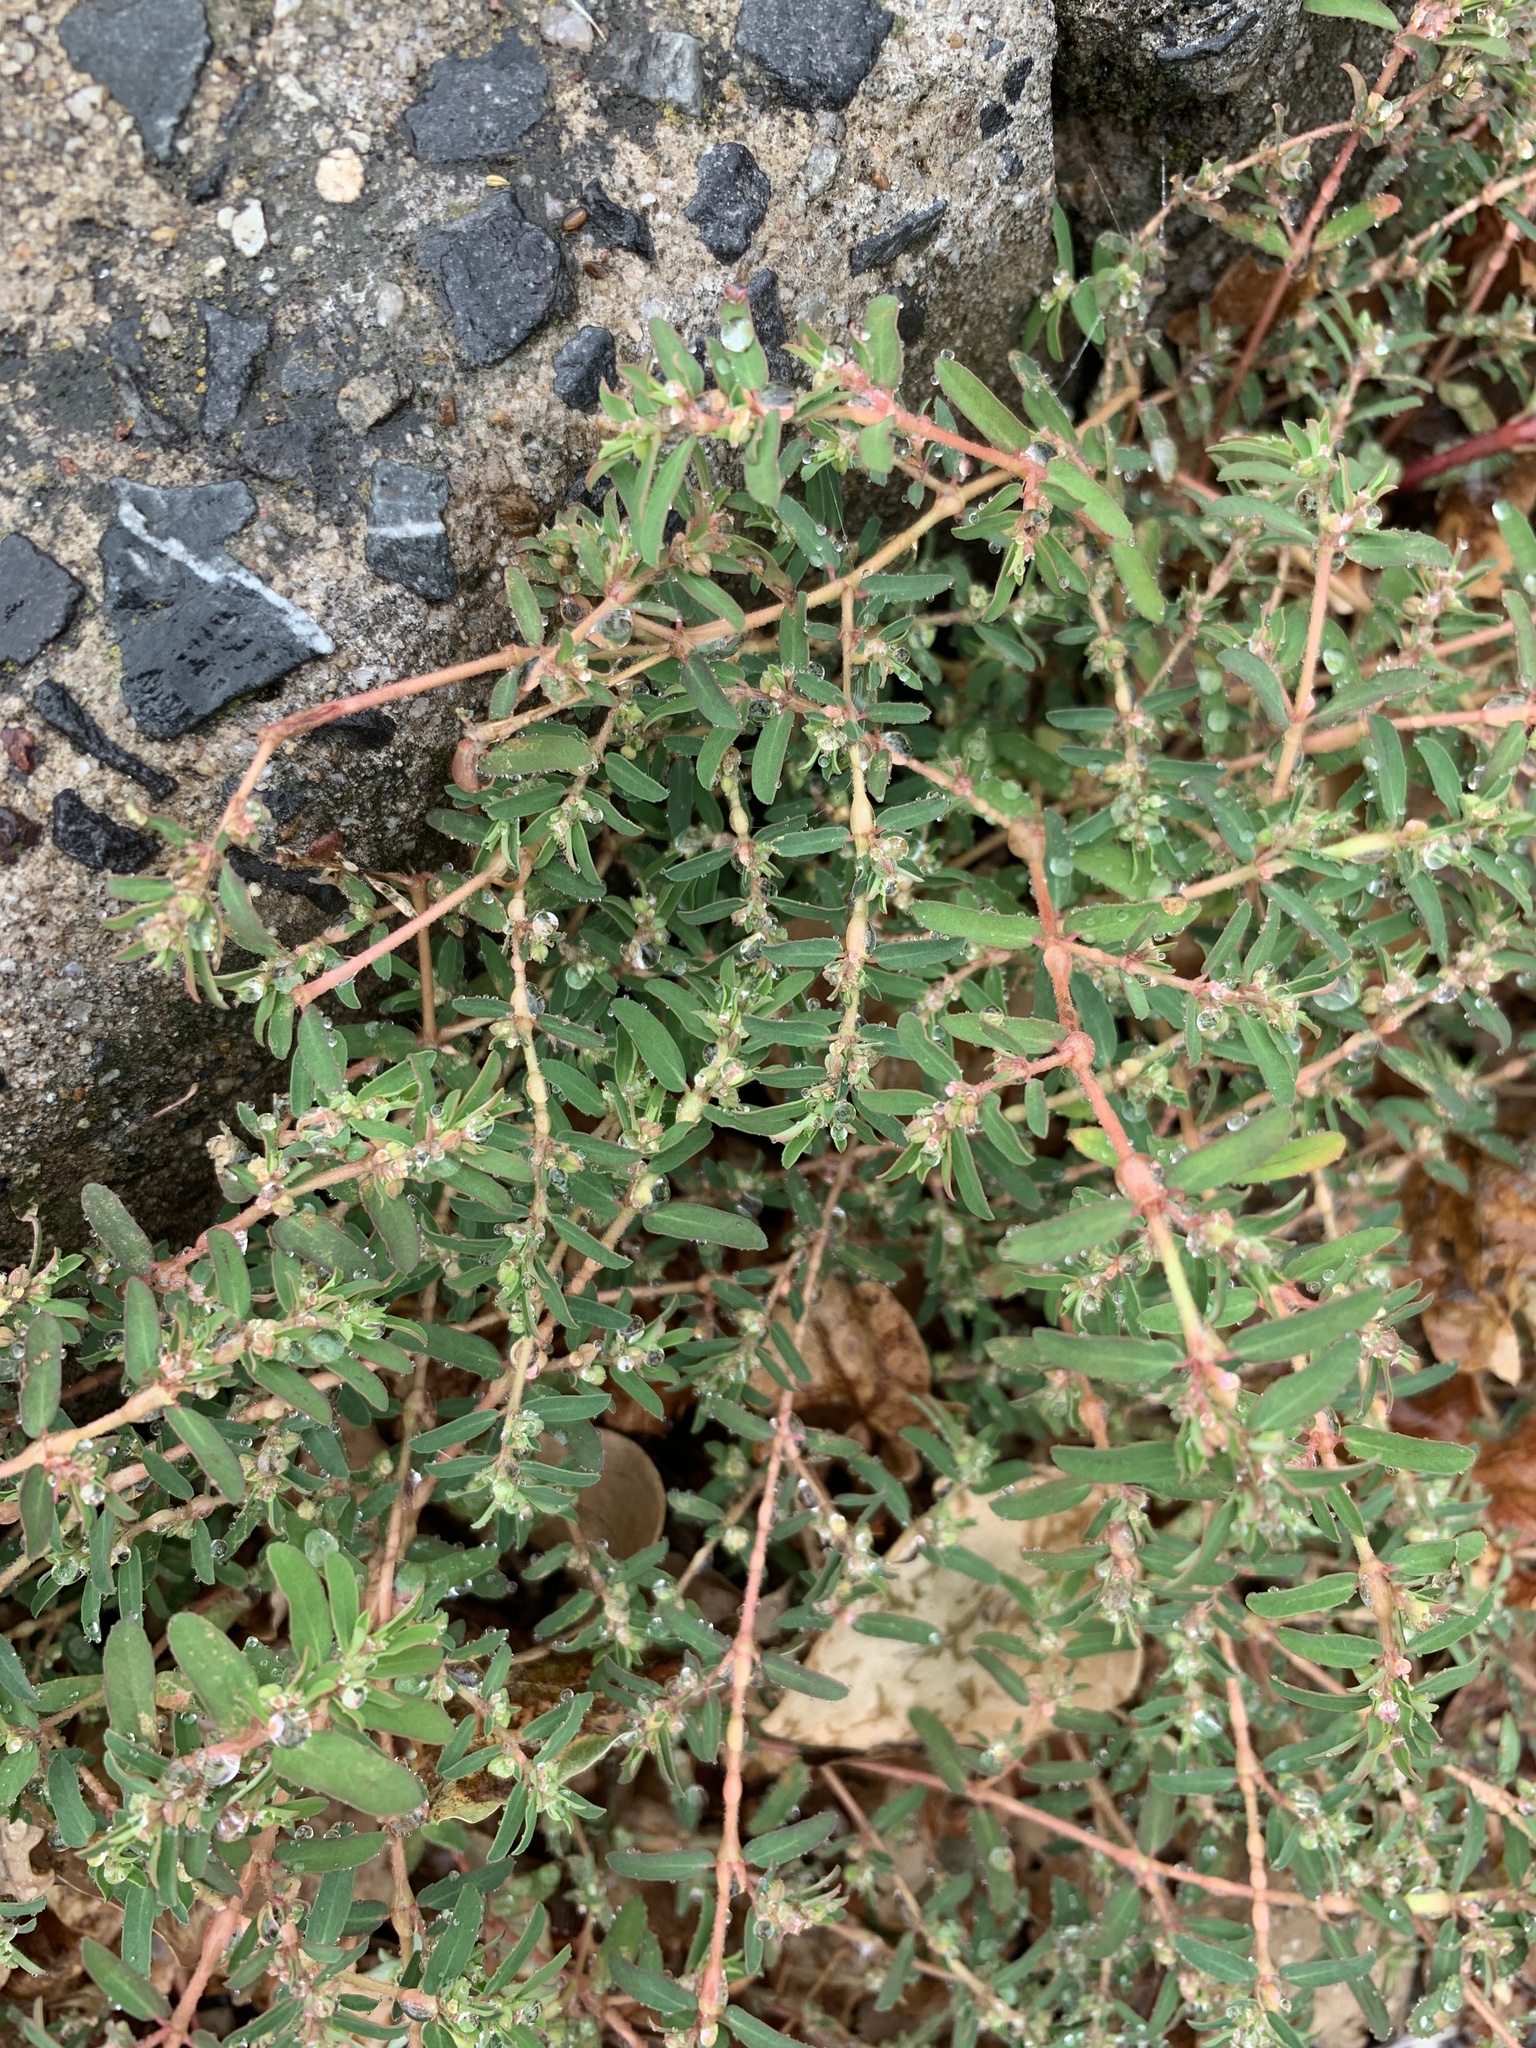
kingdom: Plantae
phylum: Tracheophyta
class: Magnoliopsida
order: Malpighiales
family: Euphorbiaceae
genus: Euphorbia
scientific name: Euphorbia maculata
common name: Spotted spurge
